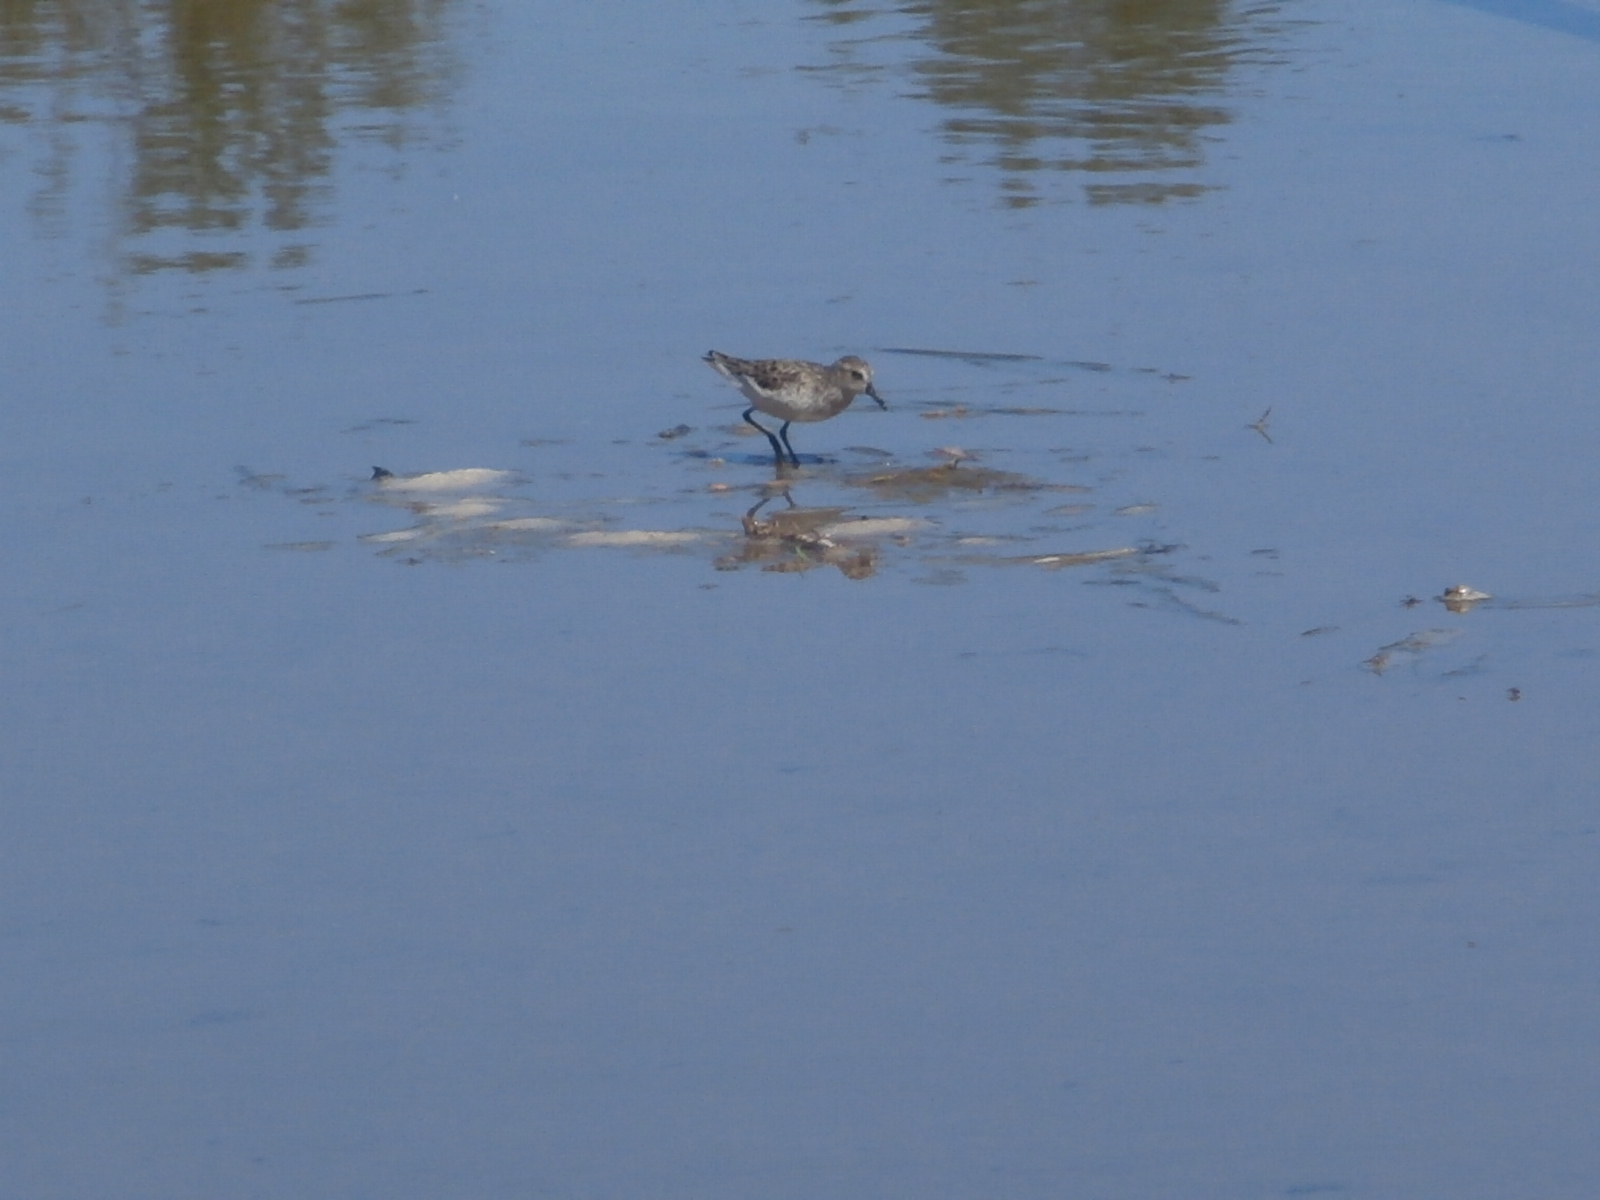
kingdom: Animalia
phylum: Chordata
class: Aves
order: Charadriiformes
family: Scolopacidae
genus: Calidris
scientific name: Calidris pusilla
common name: Semipalmated sandpiper
